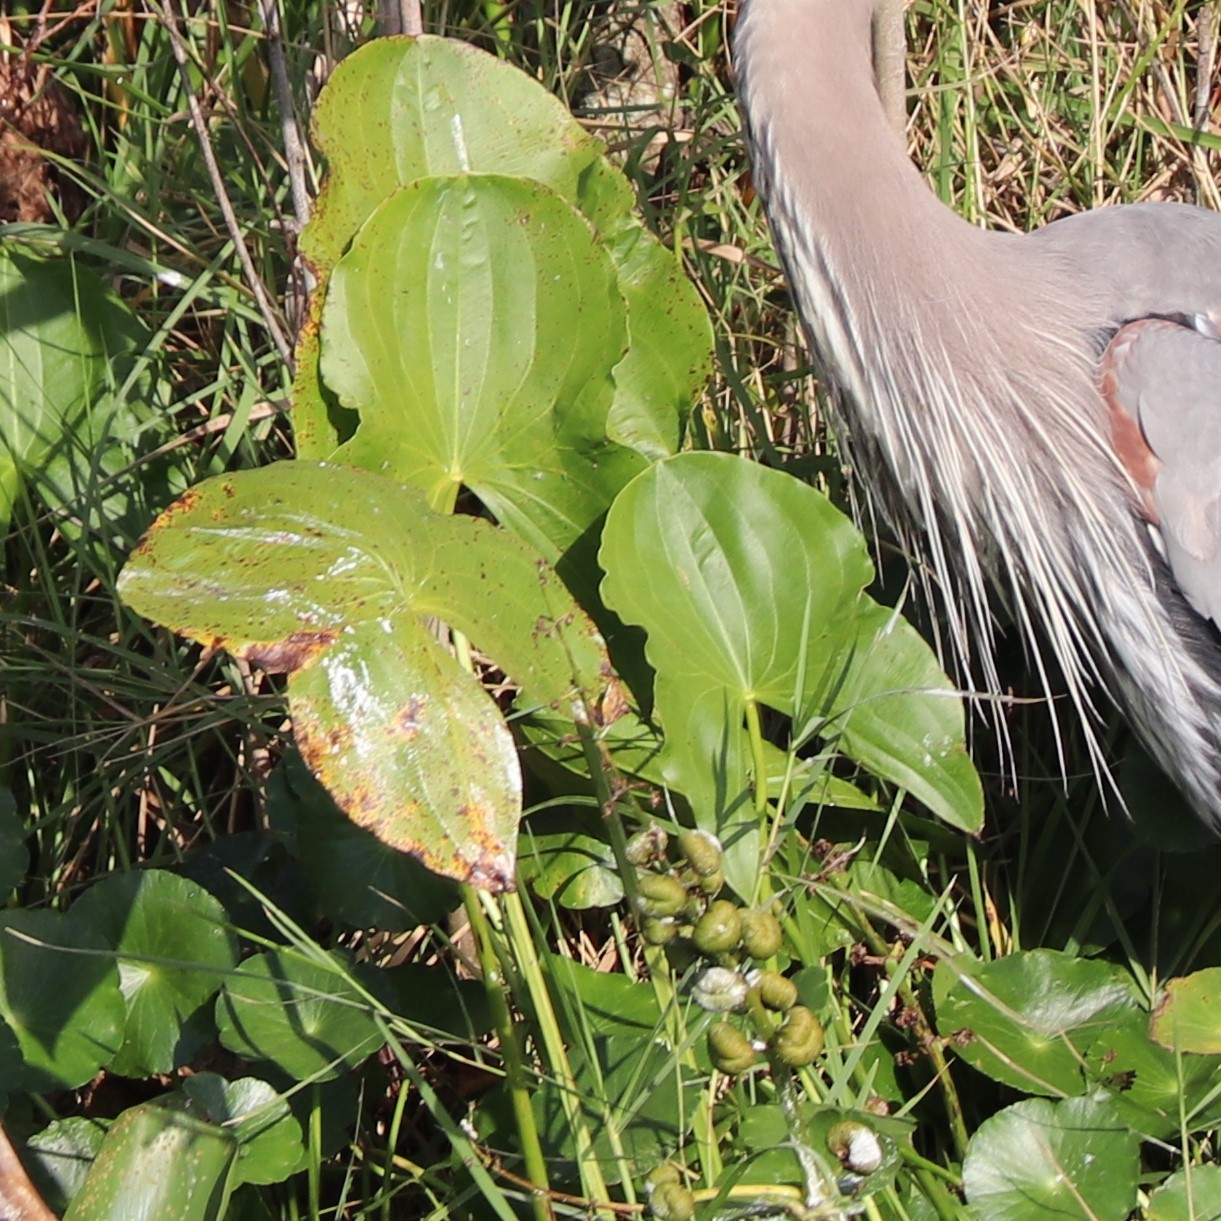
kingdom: Plantae
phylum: Tracheophyta
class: Liliopsida
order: Alismatales
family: Alismataceae
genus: Sagittaria
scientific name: Sagittaria latifolia
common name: Duck-potato
